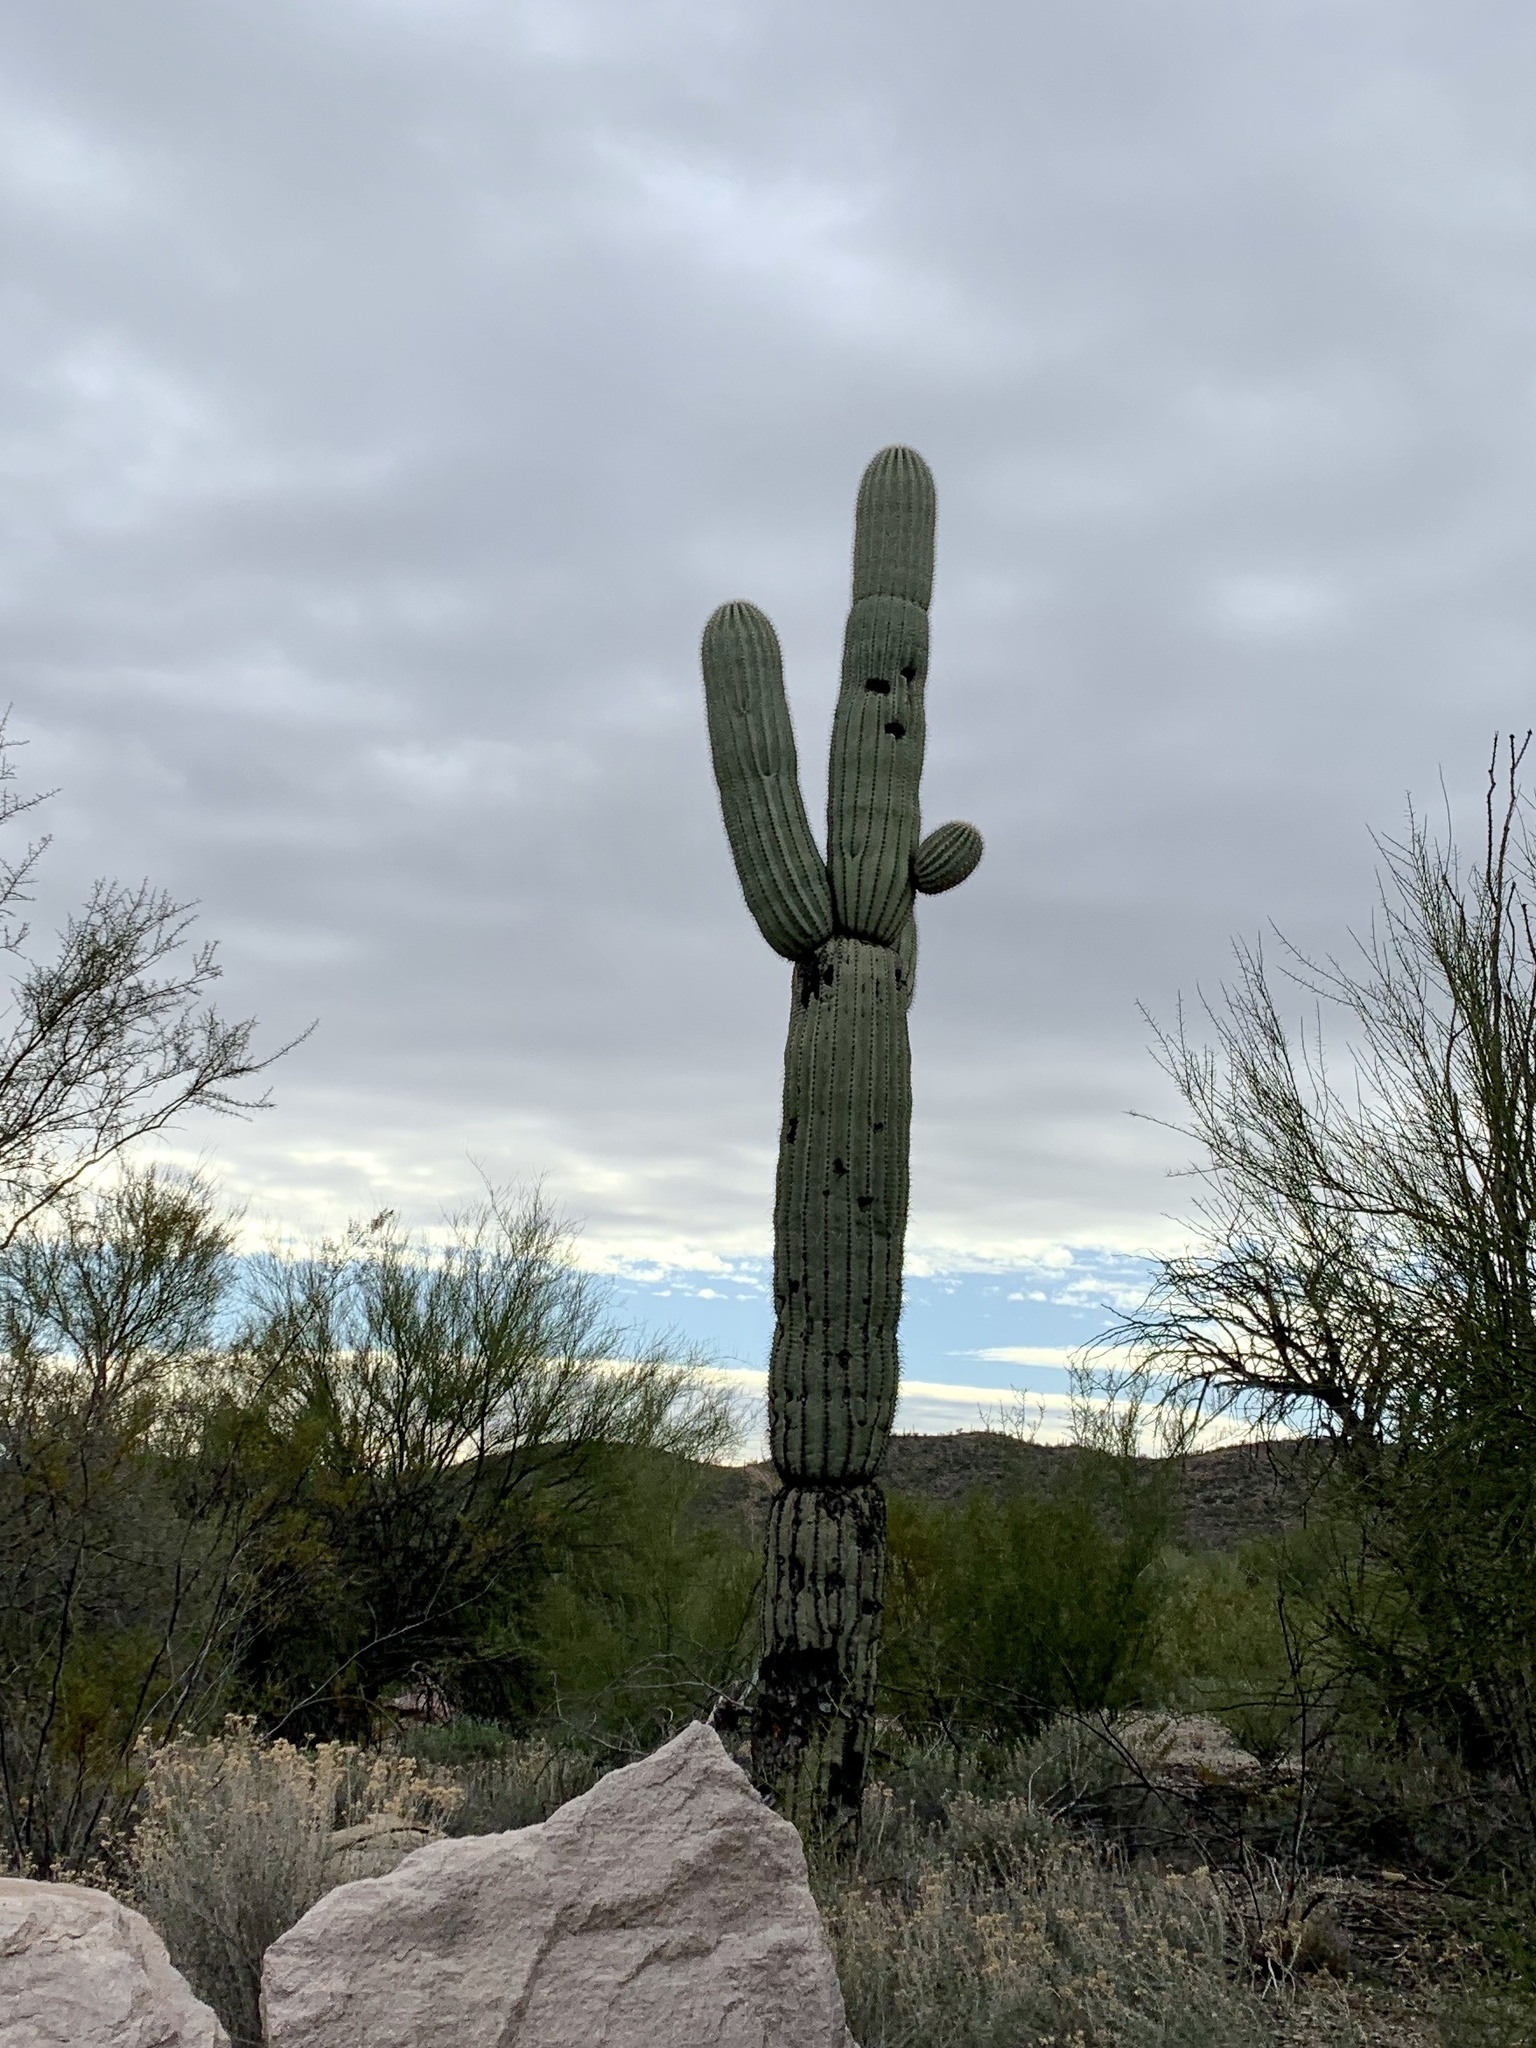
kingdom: Plantae
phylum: Tracheophyta
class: Magnoliopsida
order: Caryophyllales
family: Cactaceae
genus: Carnegiea
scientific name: Carnegiea gigantea
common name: Saguaro
